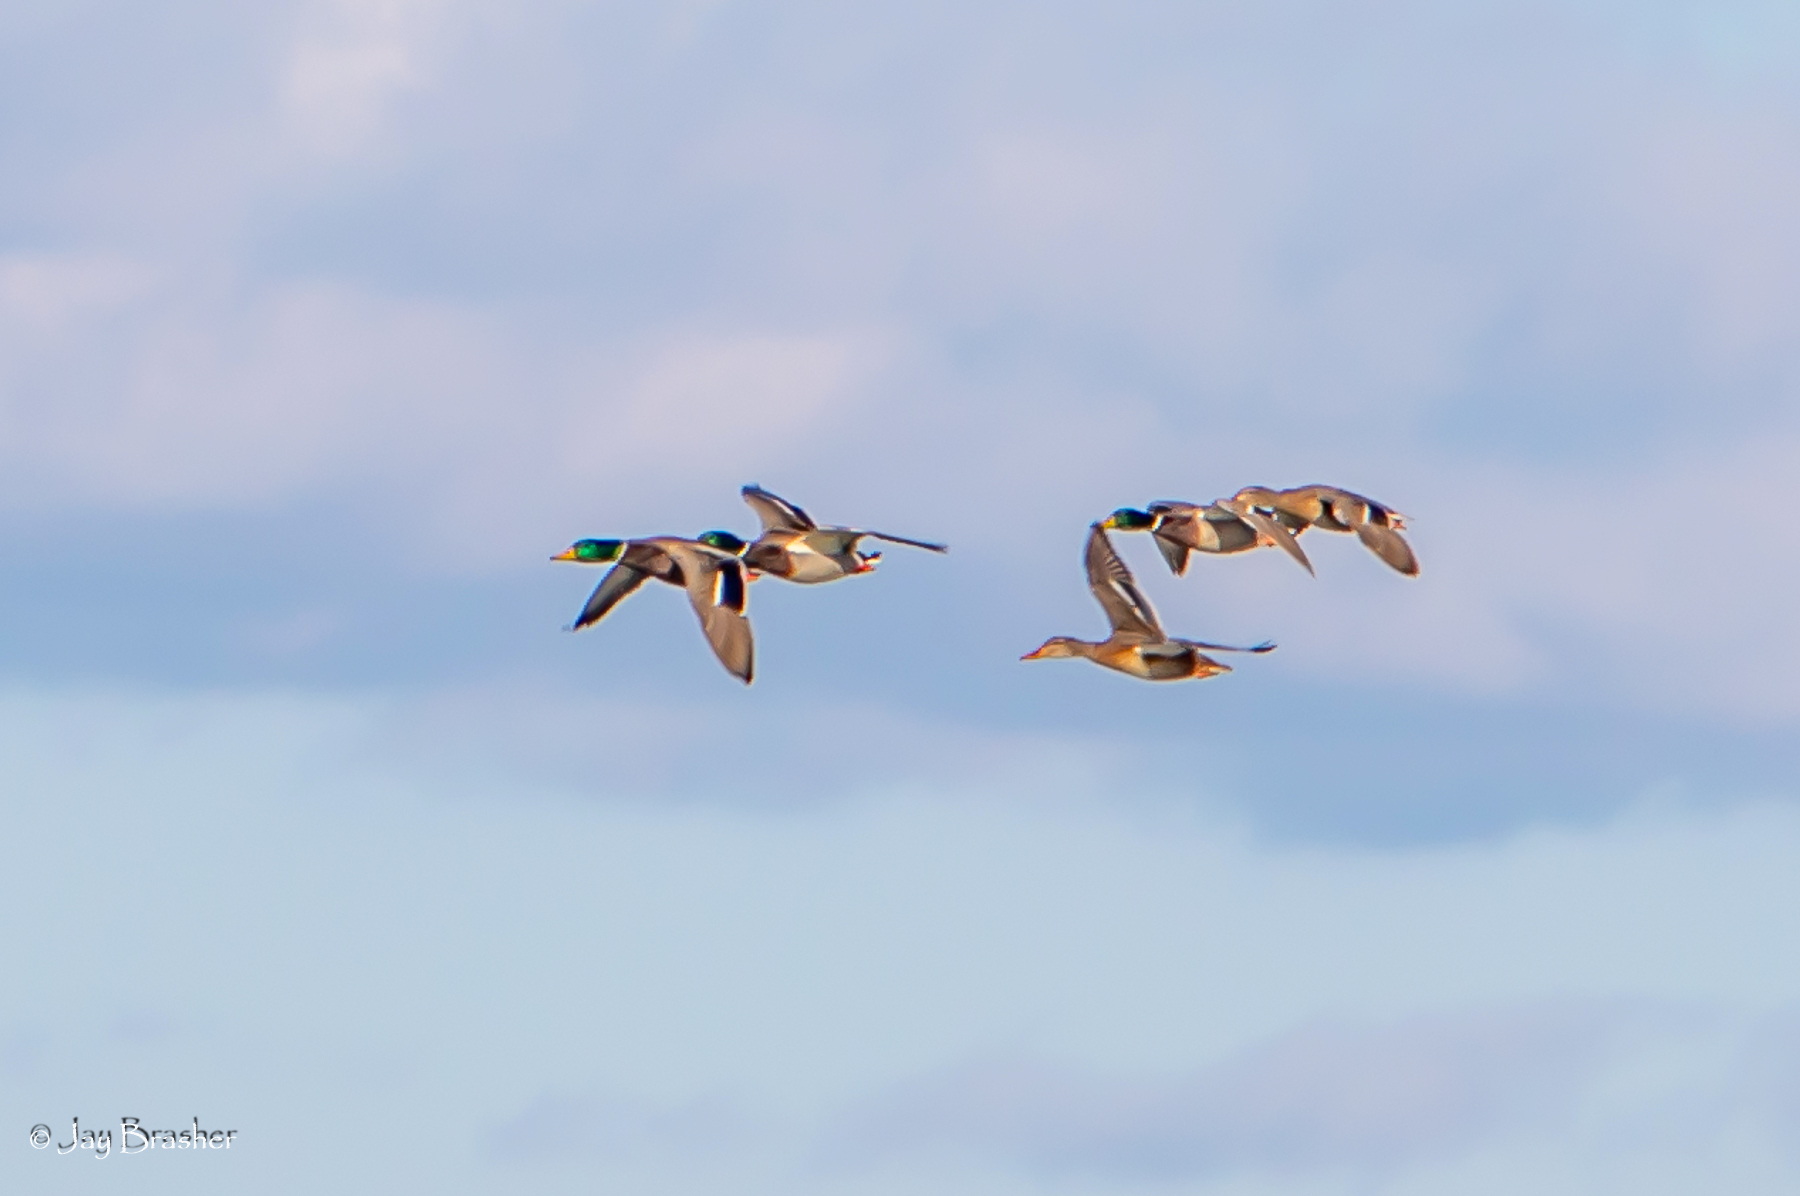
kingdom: Animalia
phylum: Chordata
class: Aves
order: Anseriformes
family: Anatidae
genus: Anas
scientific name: Anas platyrhynchos
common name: Mallard
